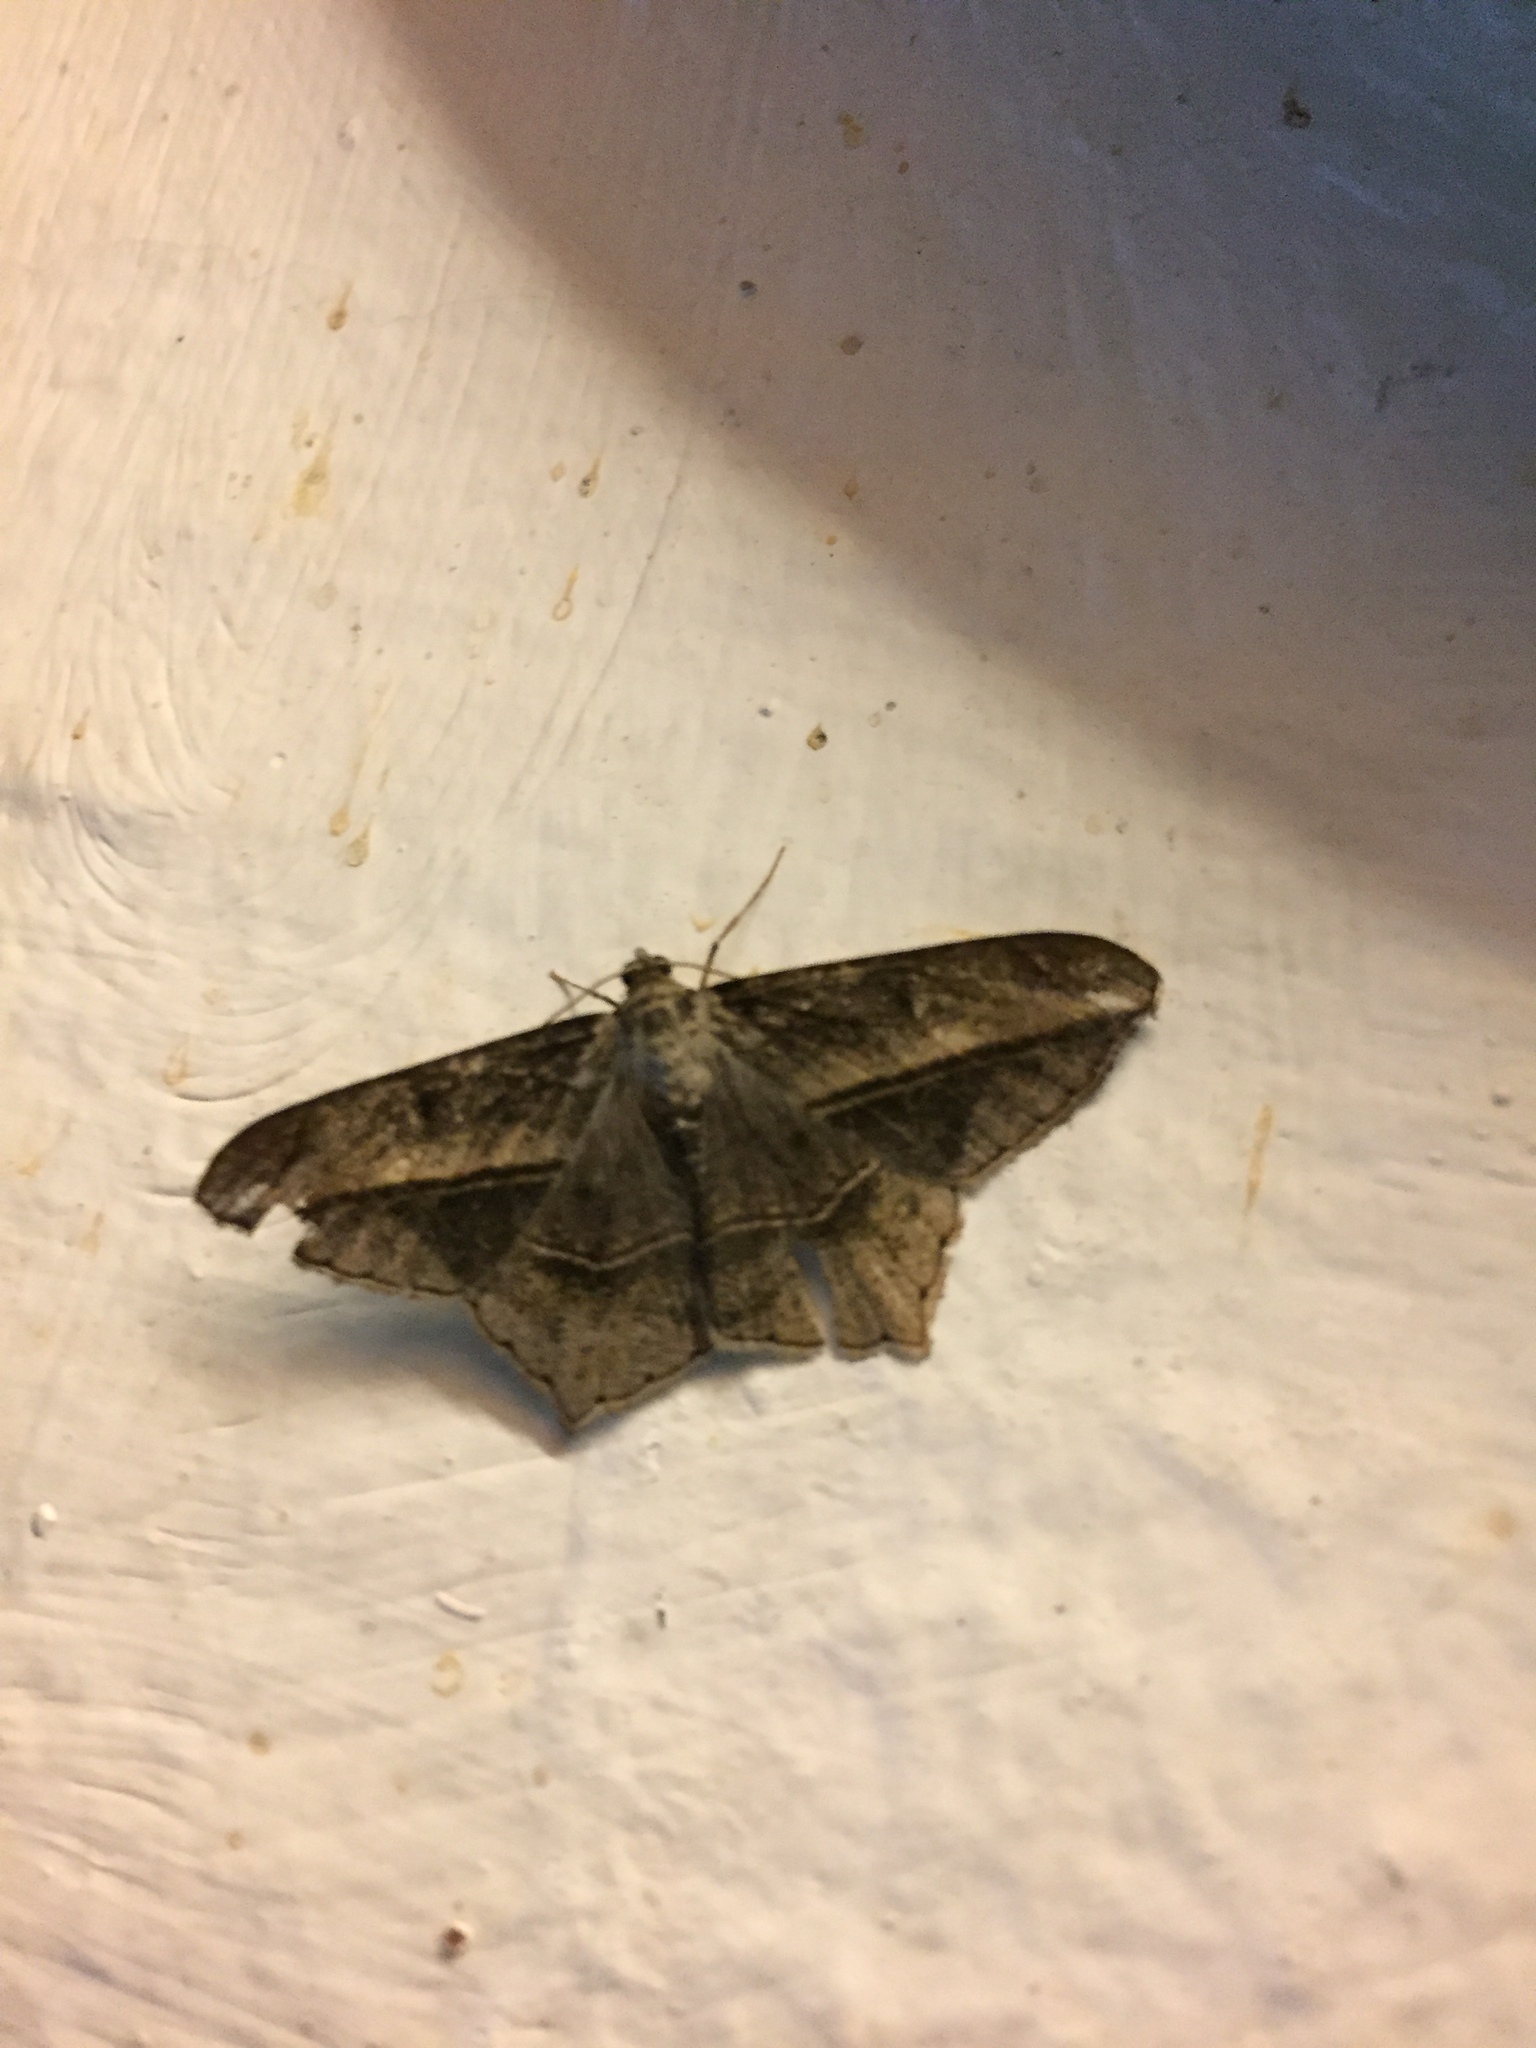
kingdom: Animalia
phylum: Arthropoda
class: Insecta
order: Lepidoptera
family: Geometridae
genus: Chiasmia
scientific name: Chiasmia simplicilinea
